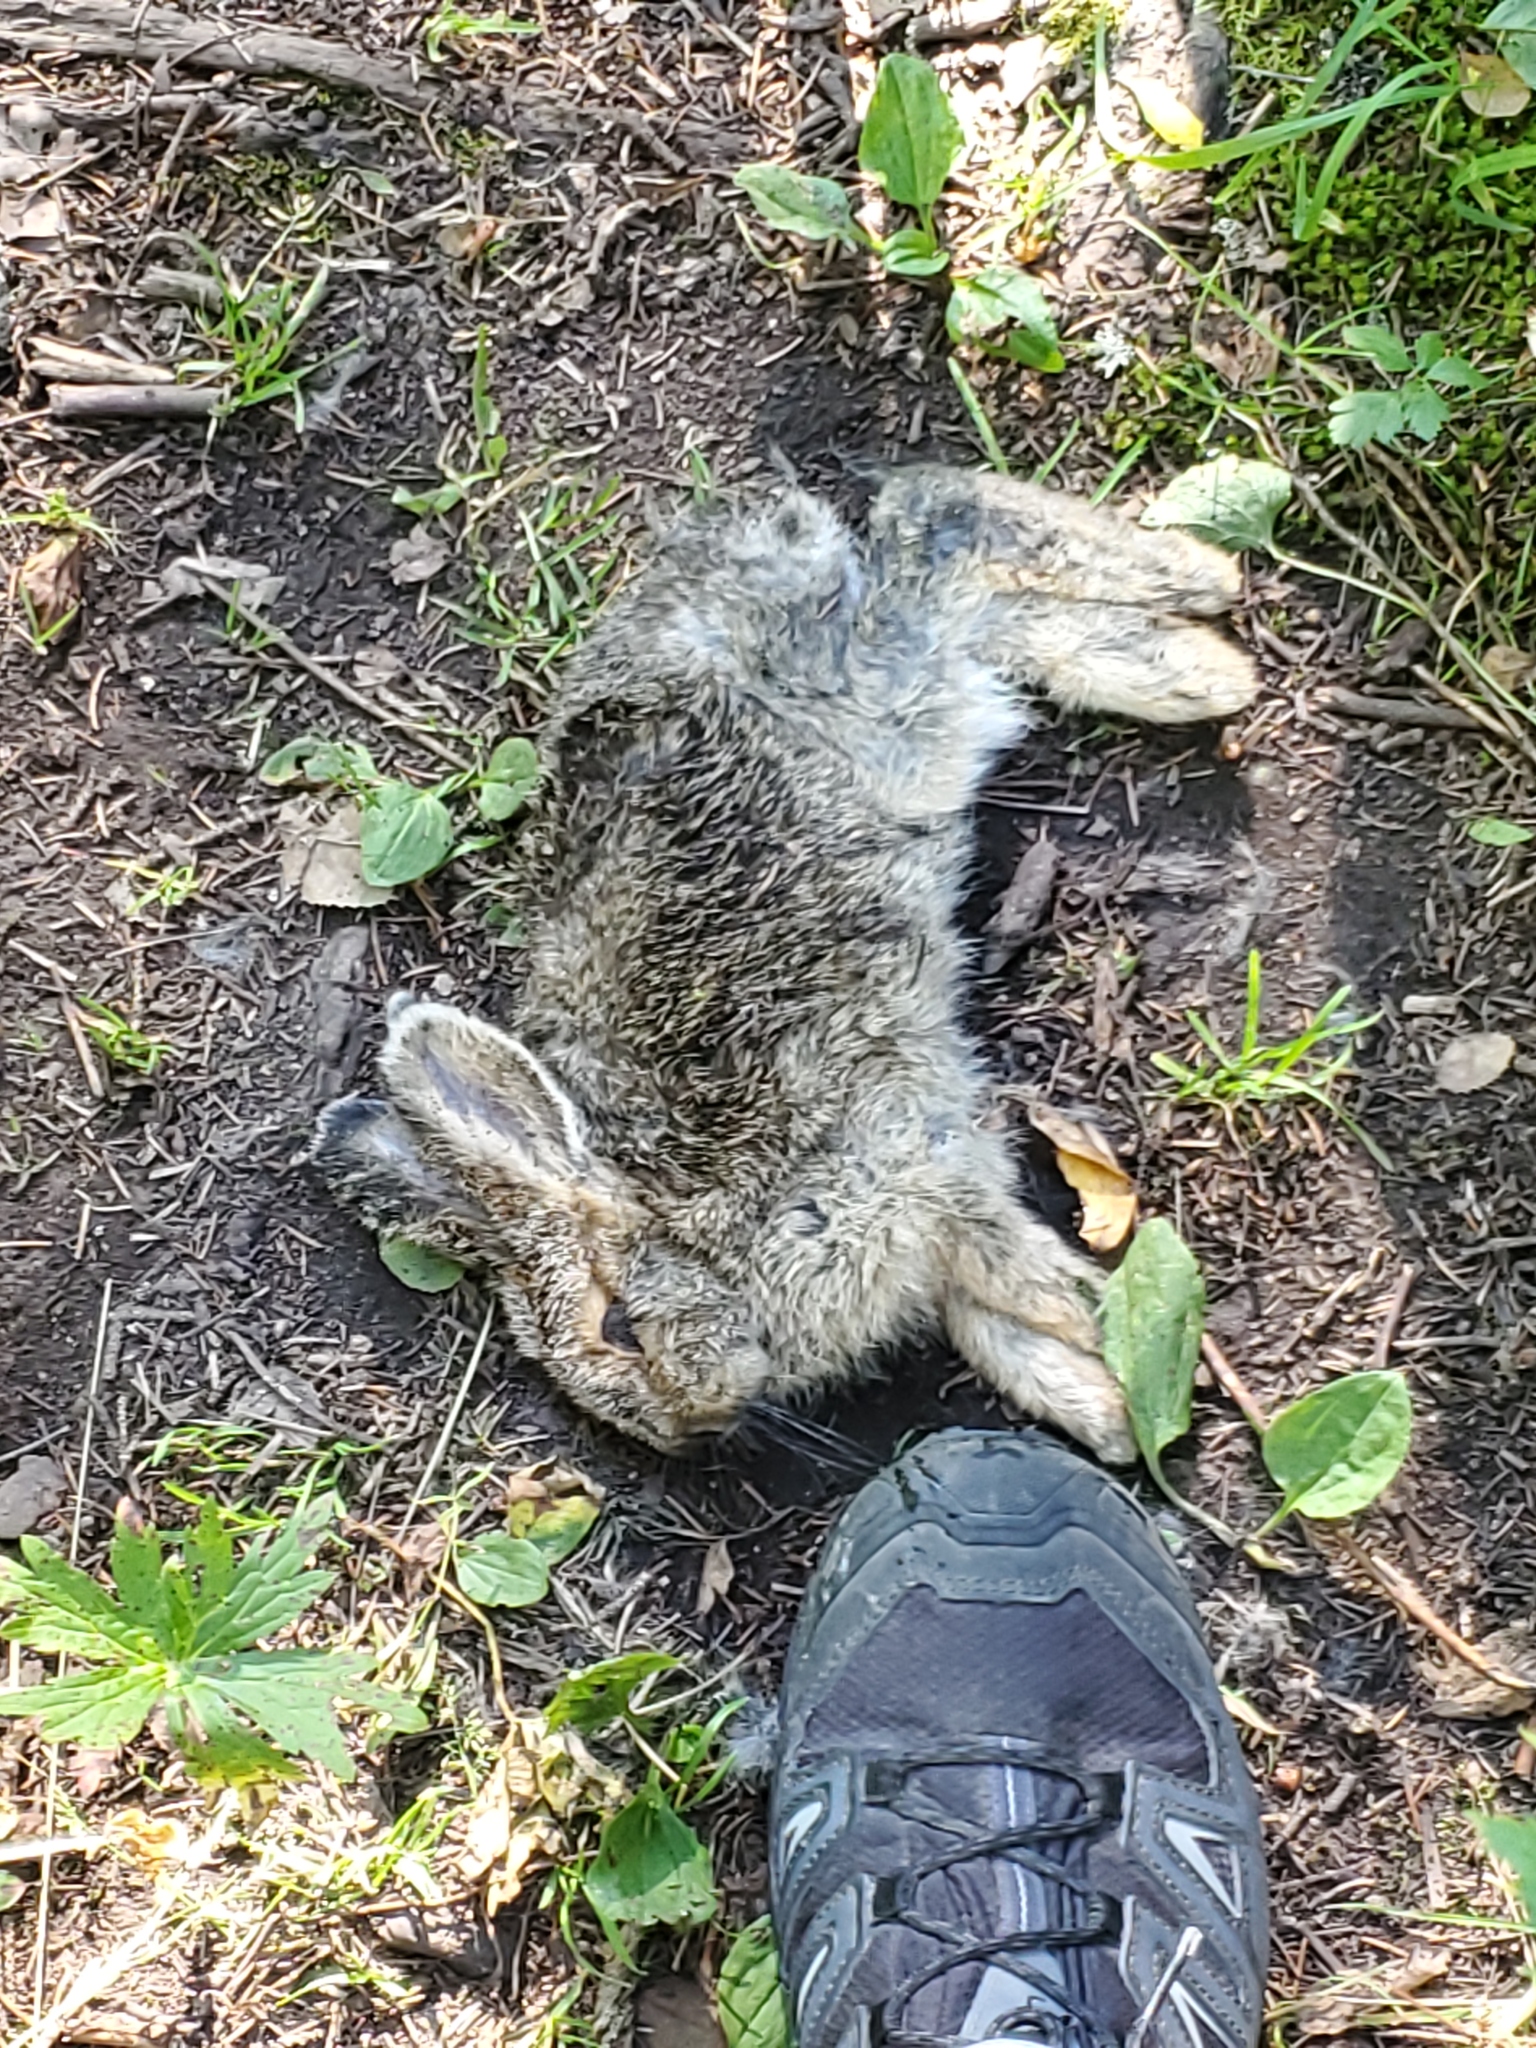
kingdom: Animalia
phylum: Chordata
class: Mammalia
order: Lagomorpha
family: Leporidae
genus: Sylvilagus
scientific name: Sylvilagus nuttallii
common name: Mountain cottontail
